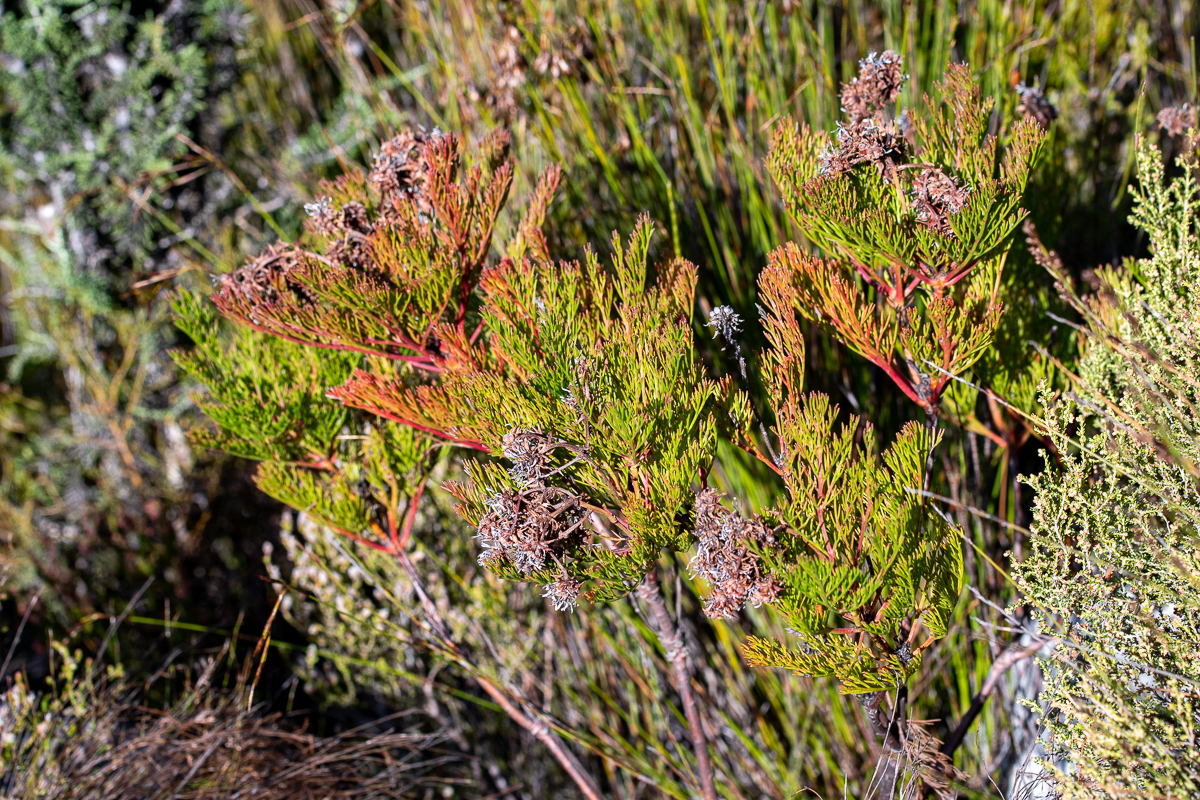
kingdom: Plantae
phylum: Tracheophyta
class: Magnoliopsida
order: Proteales
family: Proteaceae
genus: Serruria
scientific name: Serruria elongata
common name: Long-stalk spiderhead
